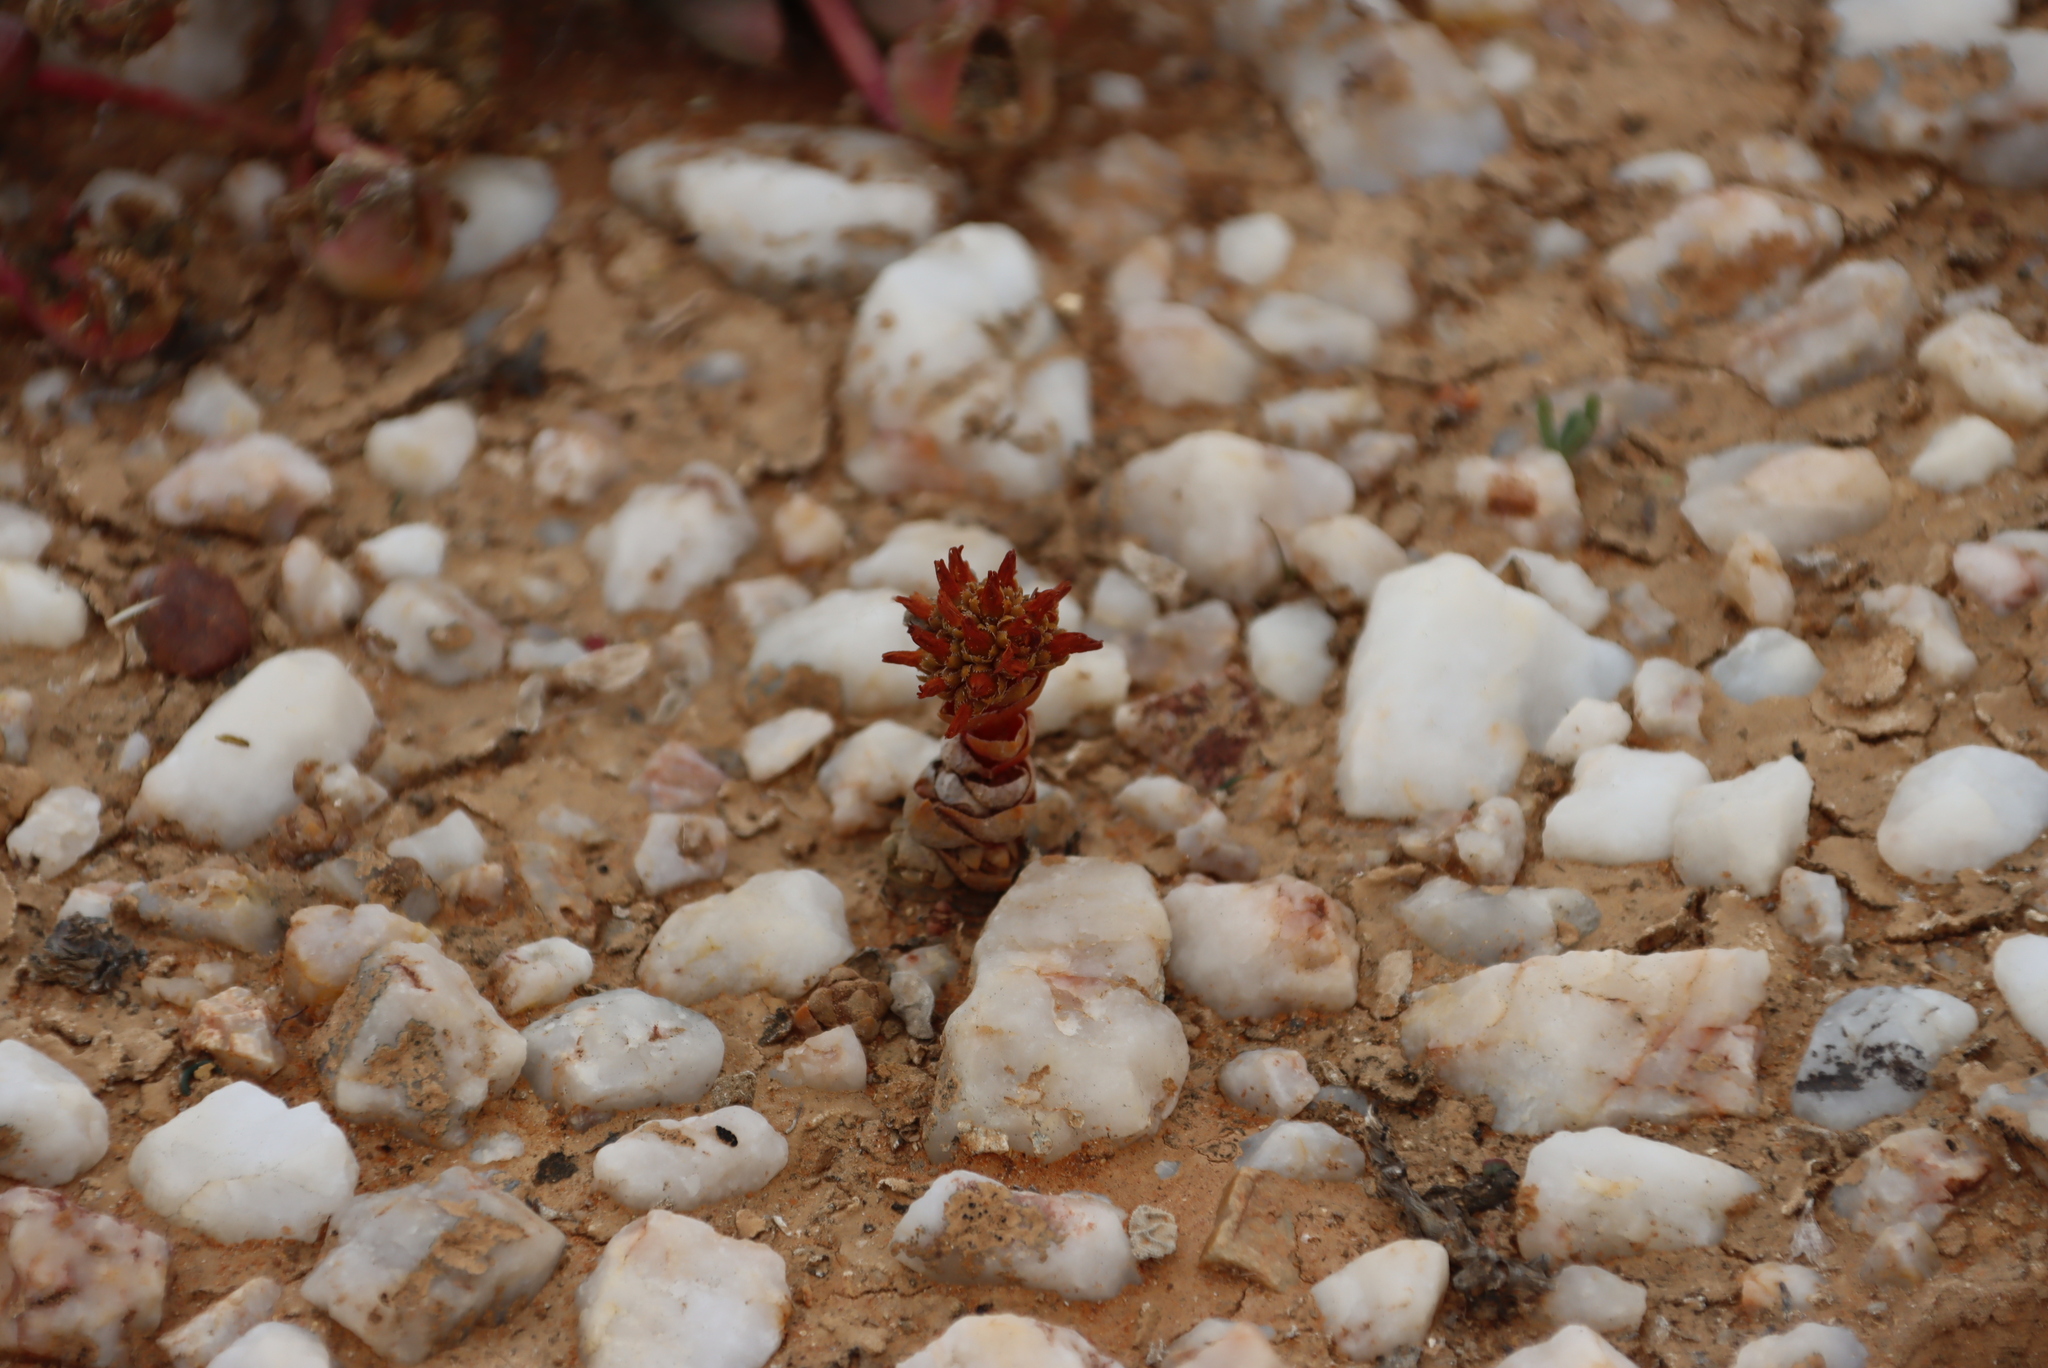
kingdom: Plantae
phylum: Tracheophyta
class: Magnoliopsida
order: Saxifragales
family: Crassulaceae
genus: Crassula
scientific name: Crassula columnaris
